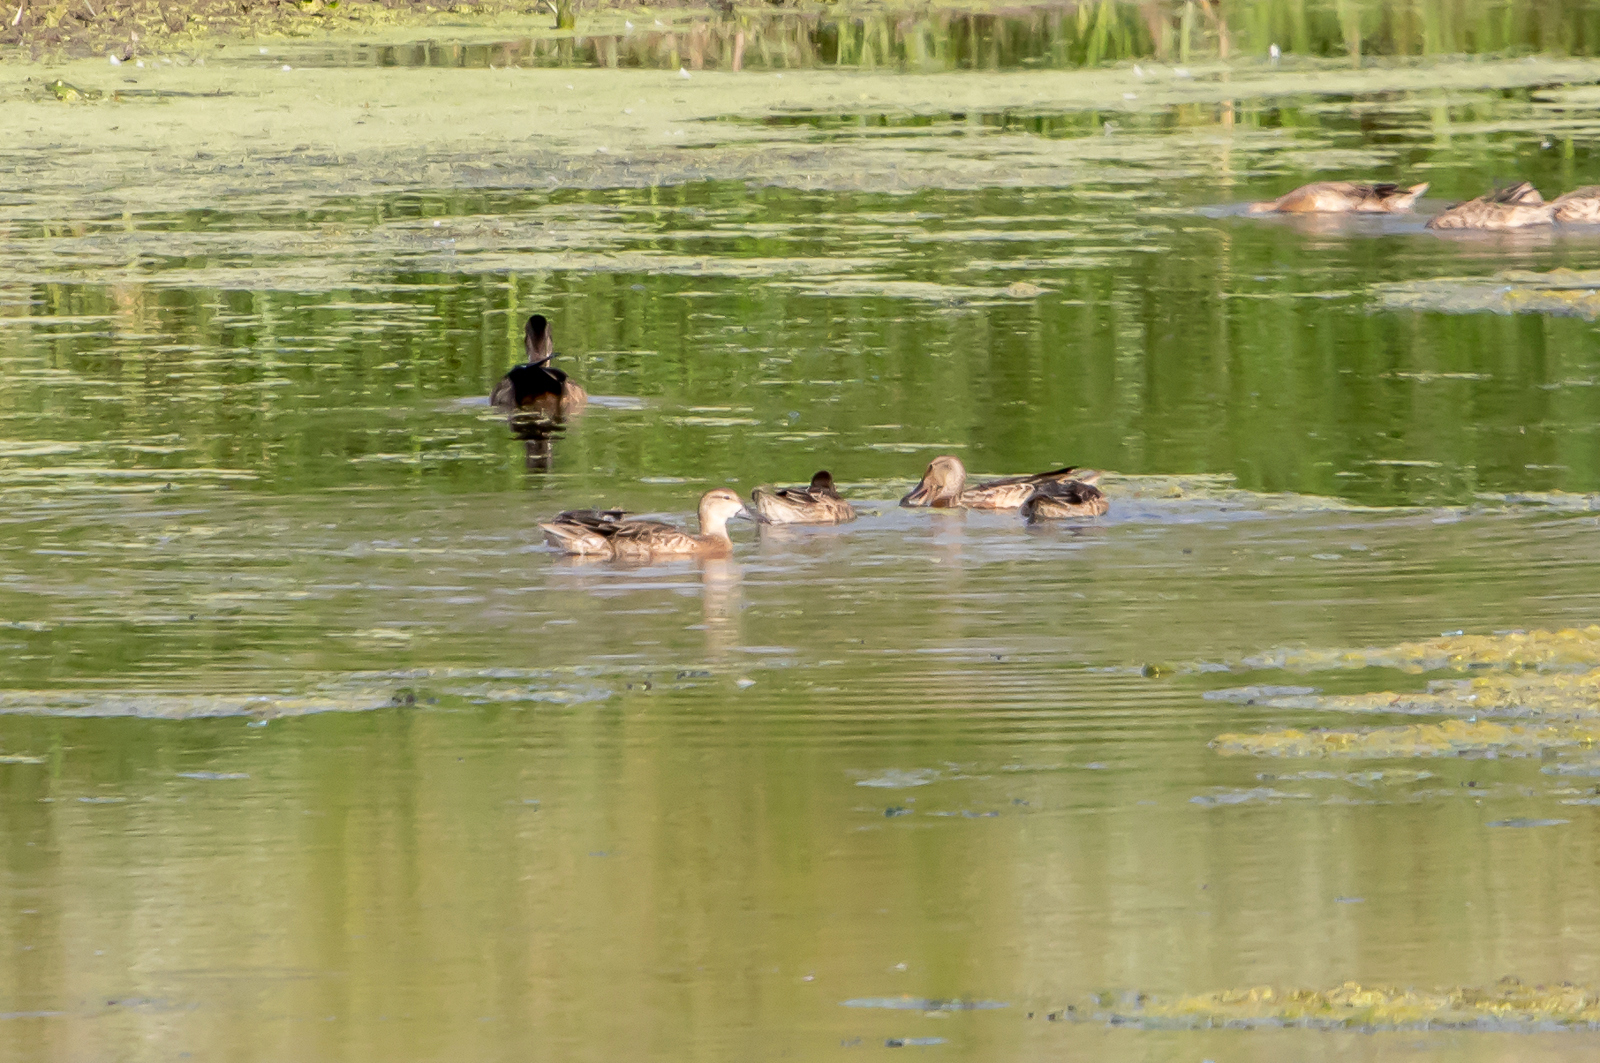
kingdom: Animalia
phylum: Chordata
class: Aves
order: Anseriformes
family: Anatidae
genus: Anas
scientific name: Anas crecca
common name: Eurasian teal
